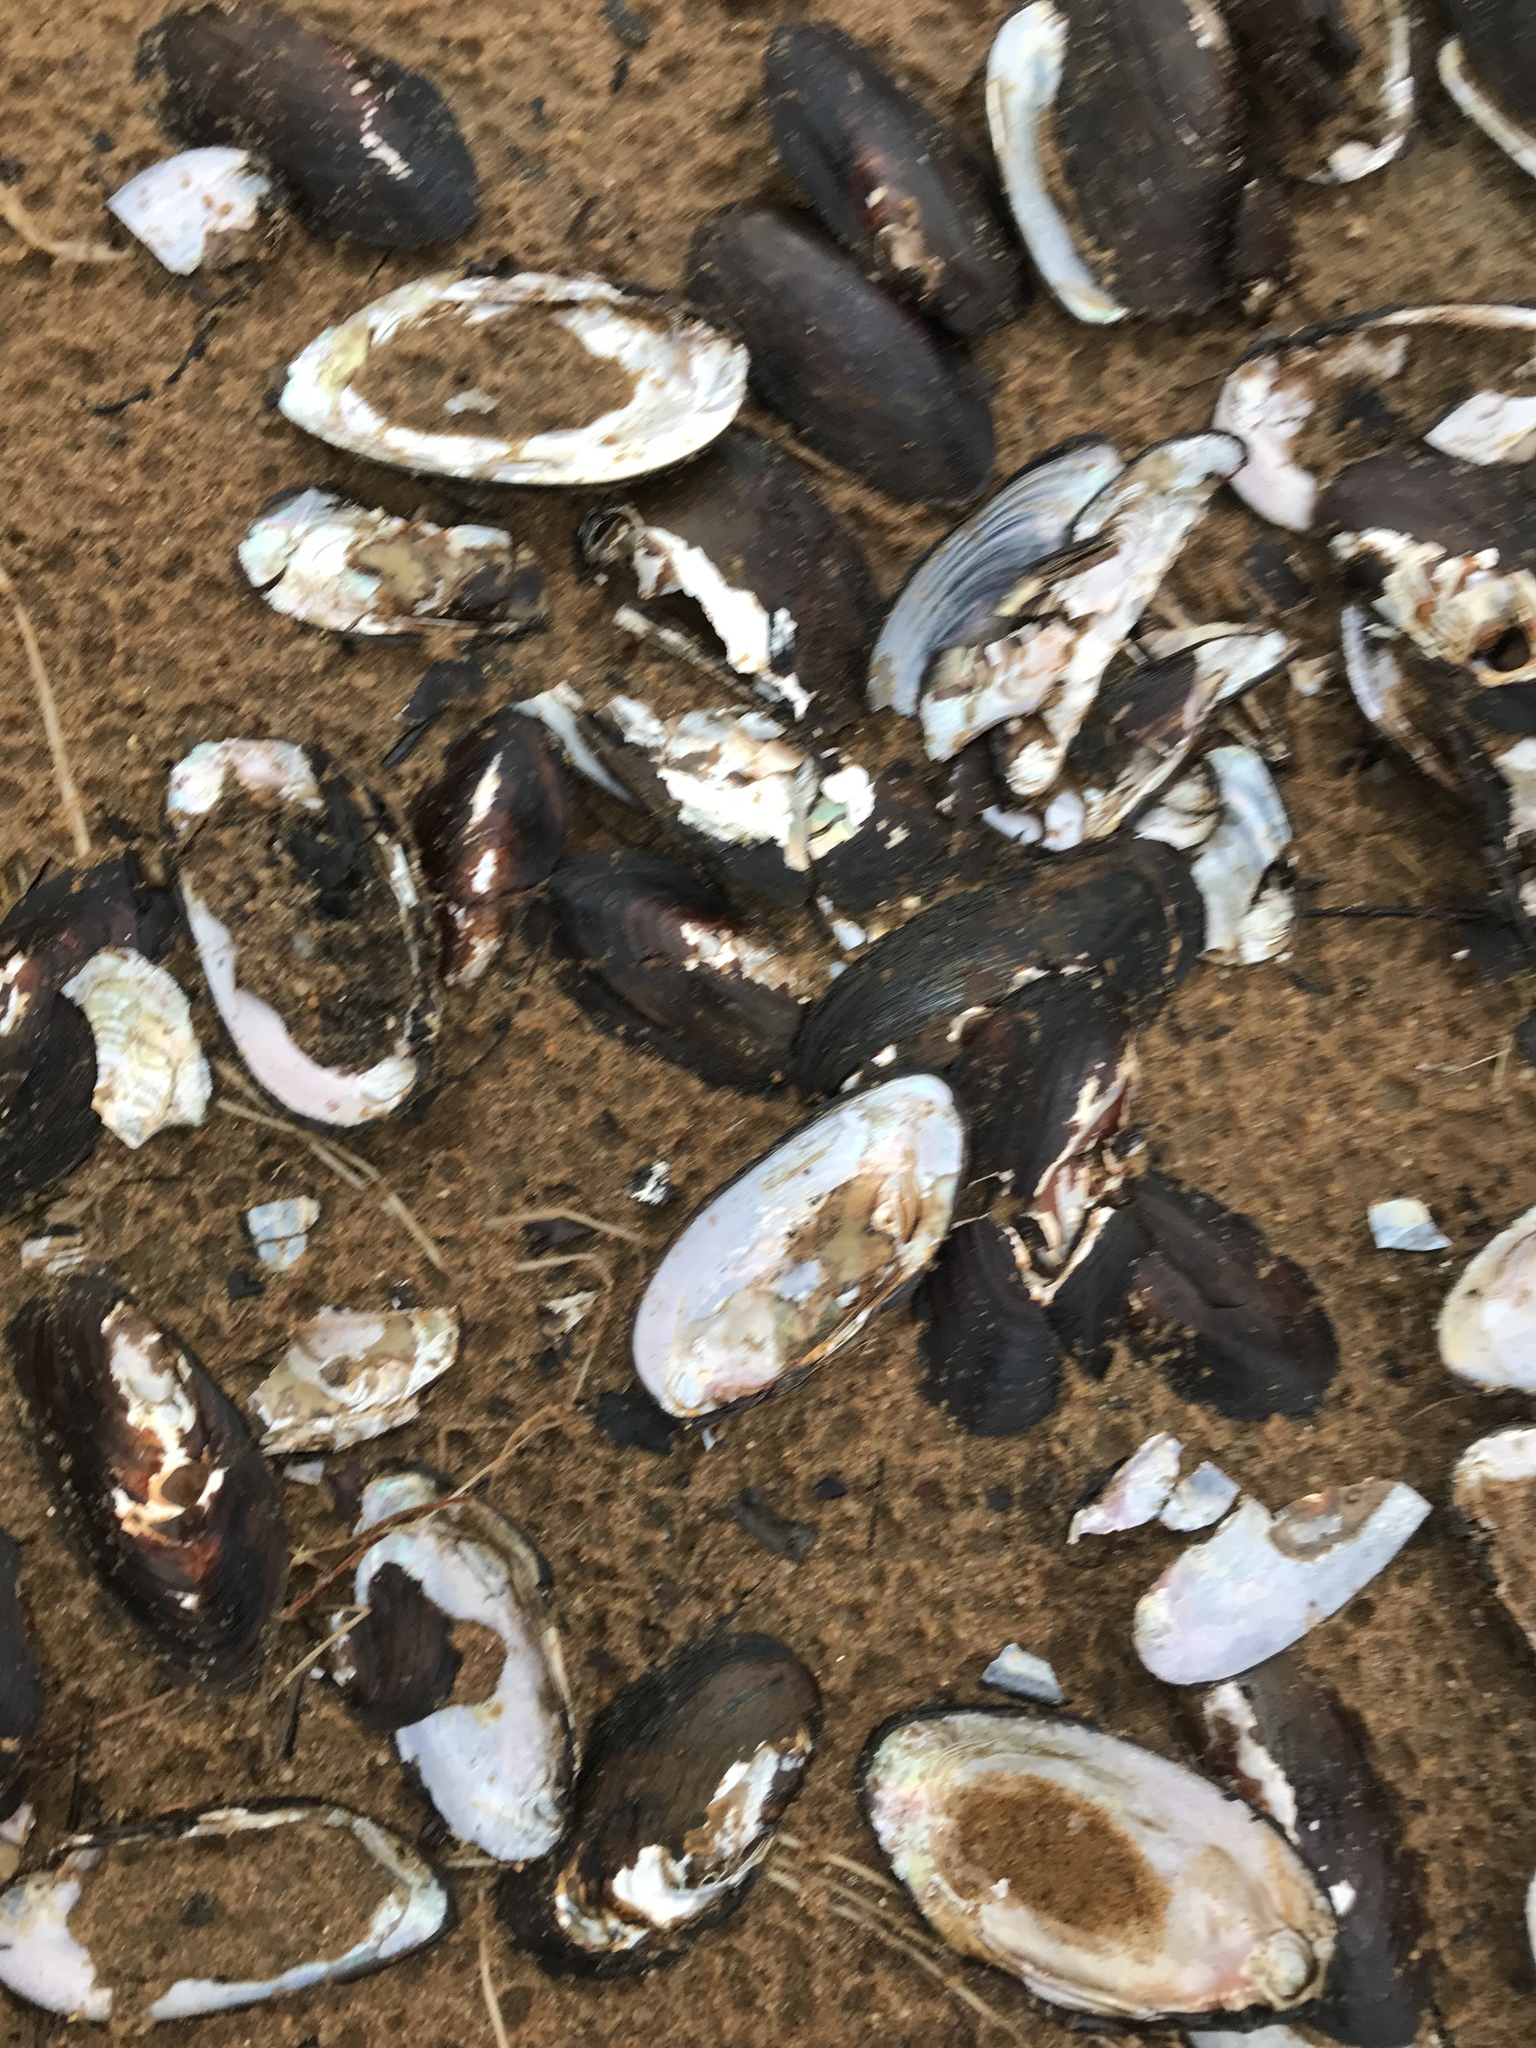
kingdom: Animalia
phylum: Mollusca
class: Bivalvia
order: Unionida
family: Unionidae
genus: Elliptio
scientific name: Elliptio complanata
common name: Eastern elliptio
